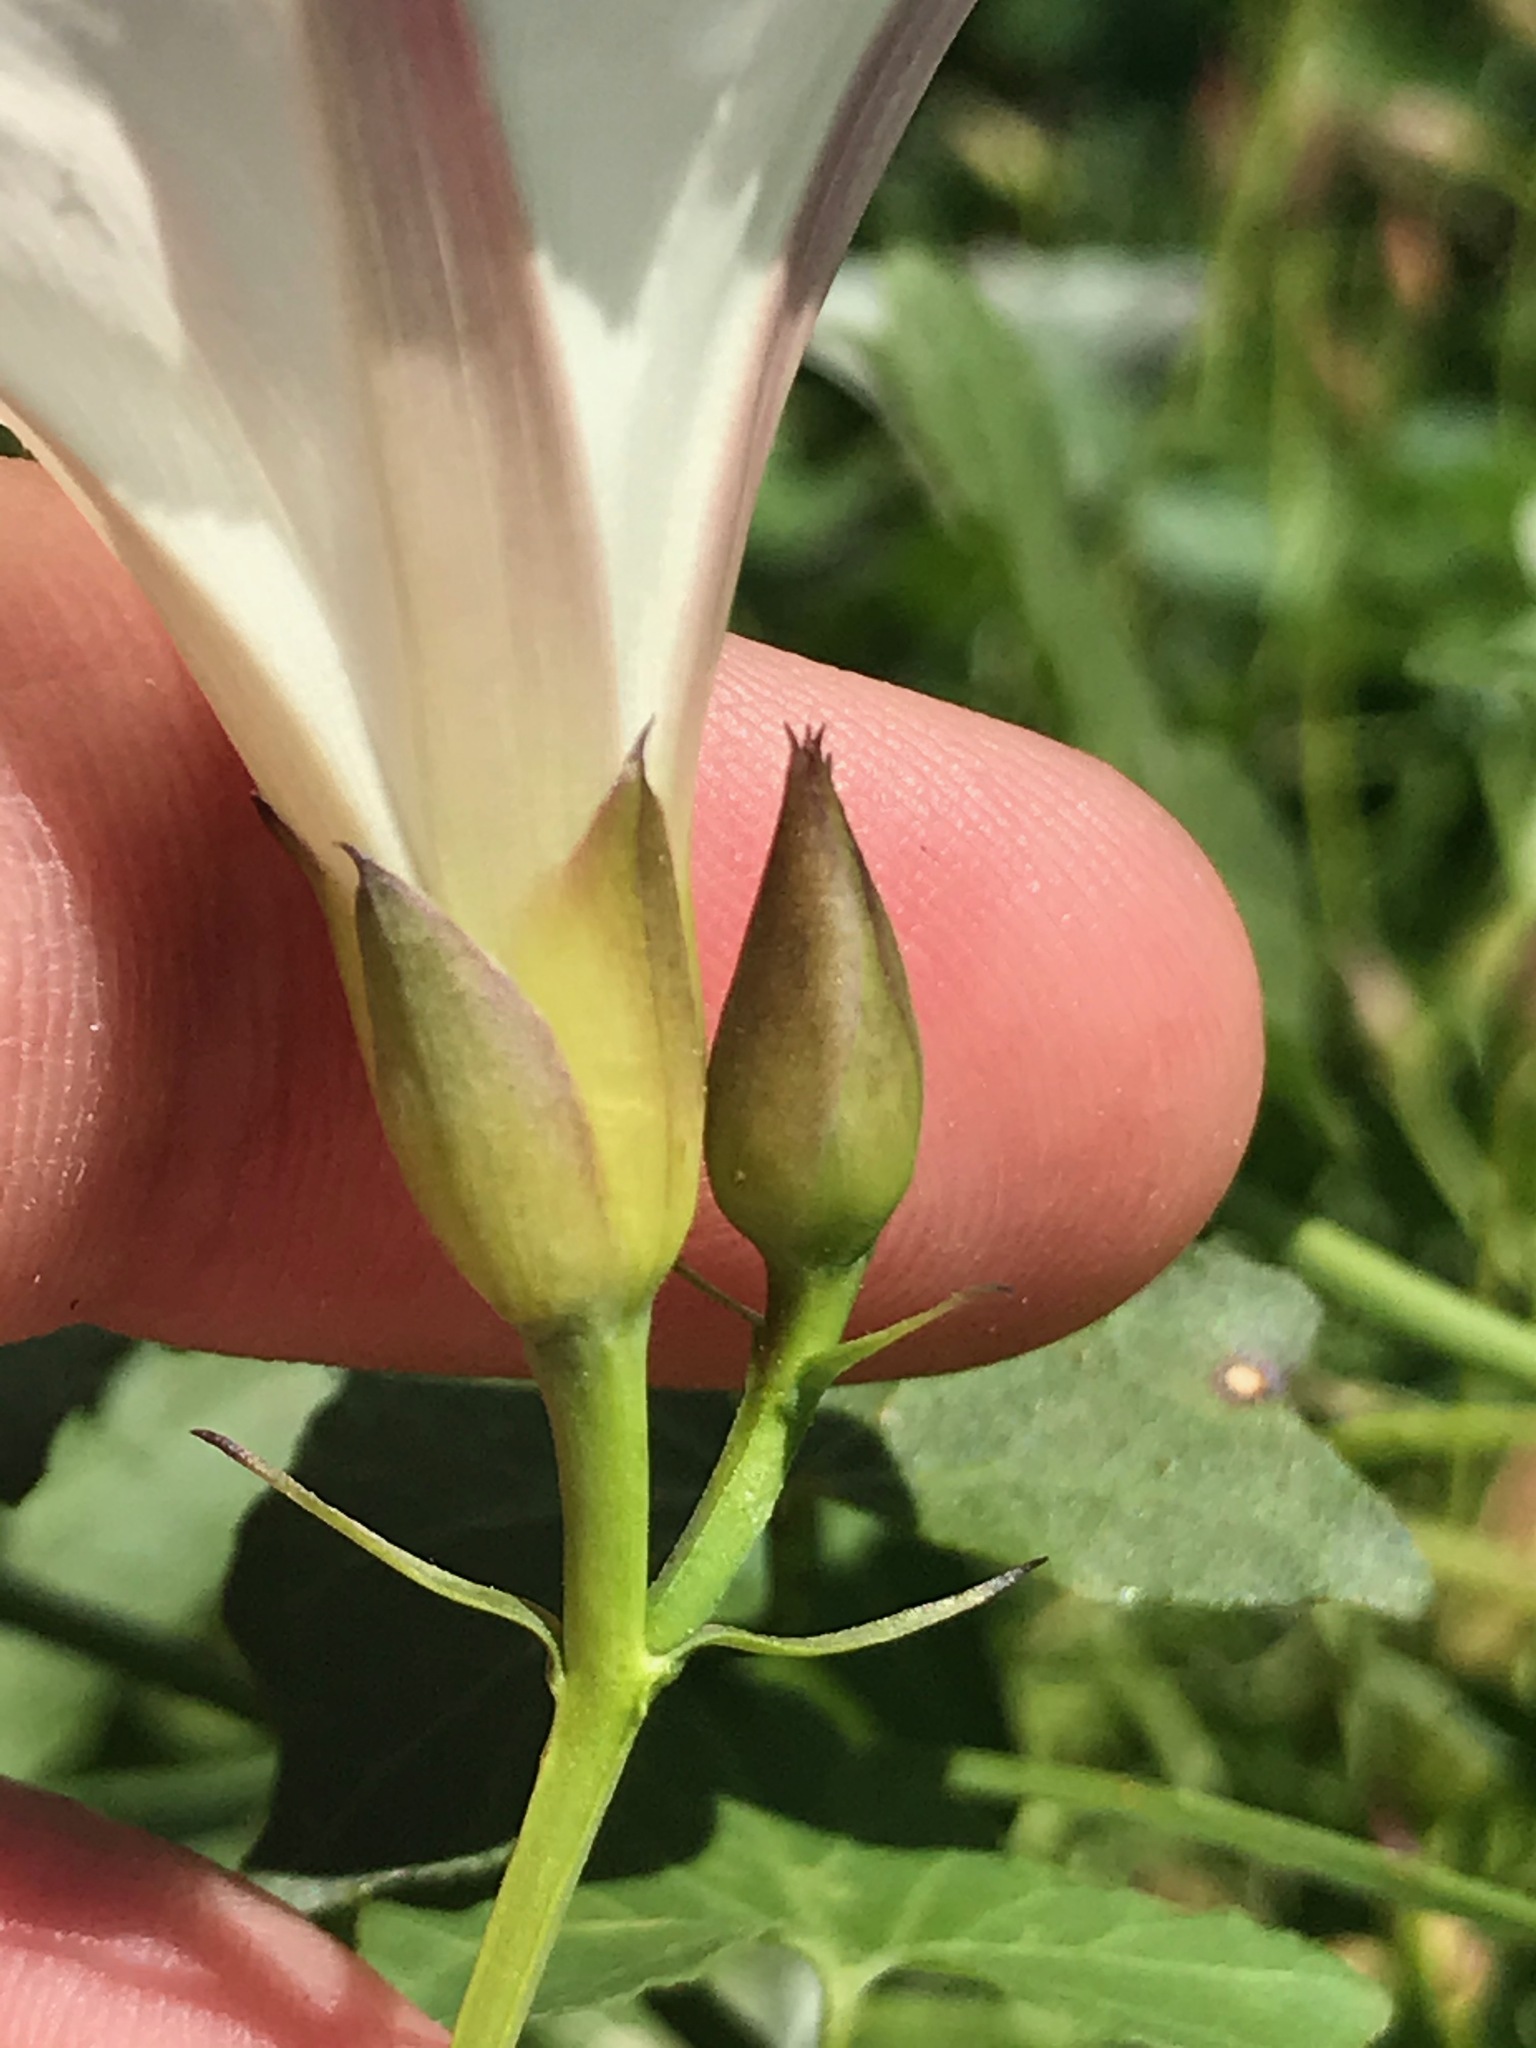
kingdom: Plantae
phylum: Tracheophyta
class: Magnoliopsida
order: Solanales
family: Convolvulaceae
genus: Calystegia
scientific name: Calystegia purpurata
